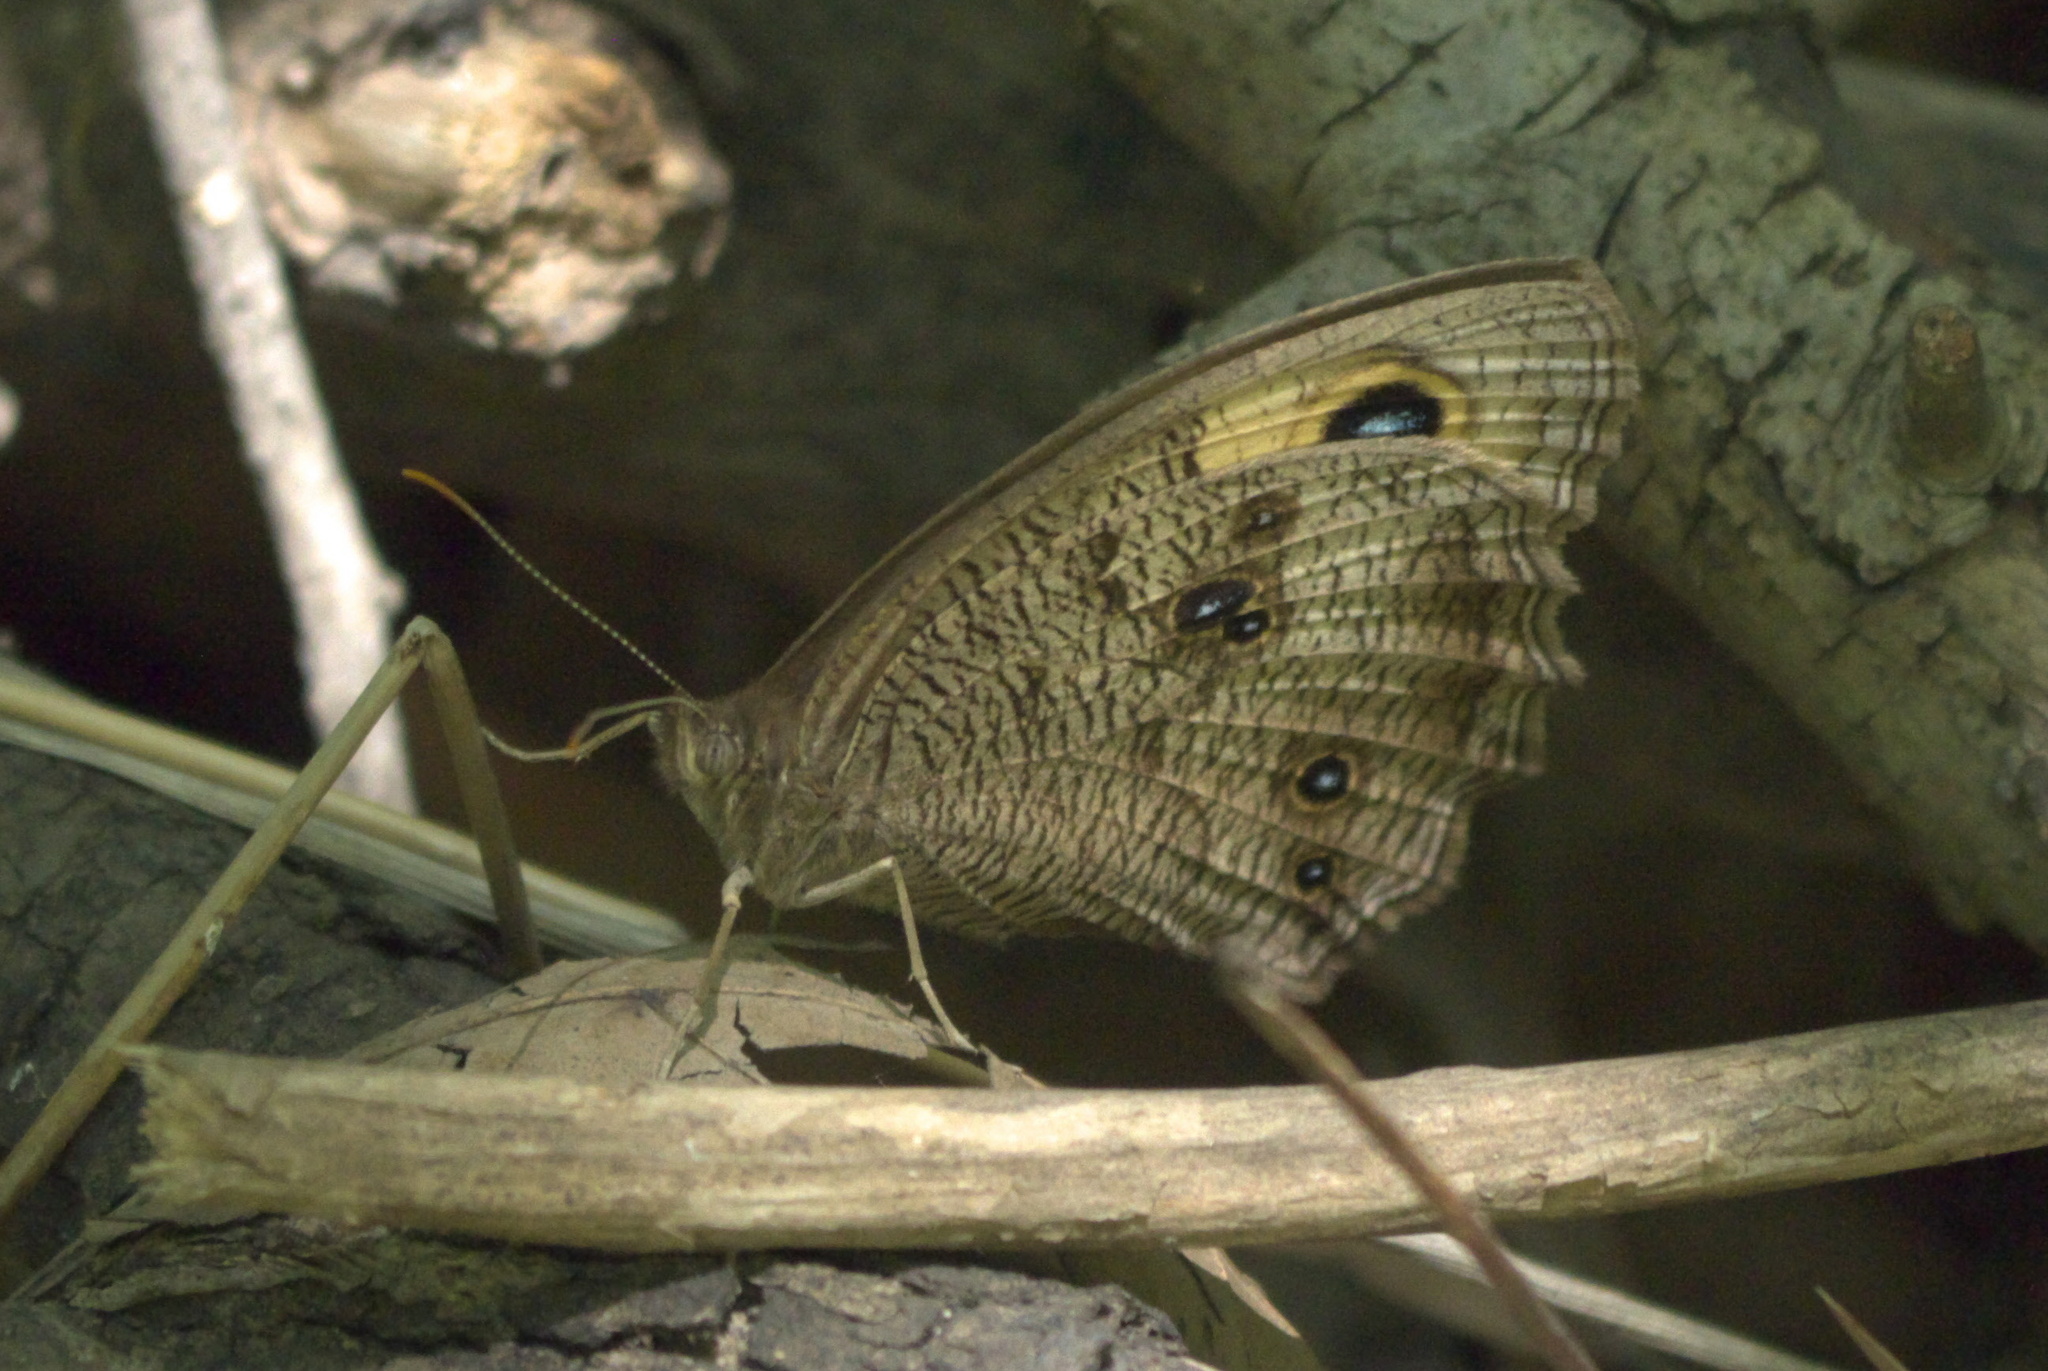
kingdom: Animalia
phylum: Arthropoda
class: Insecta
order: Lepidoptera
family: Nymphalidae
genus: Cercyonis
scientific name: Cercyonis pegala
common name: Common wood-nymph
